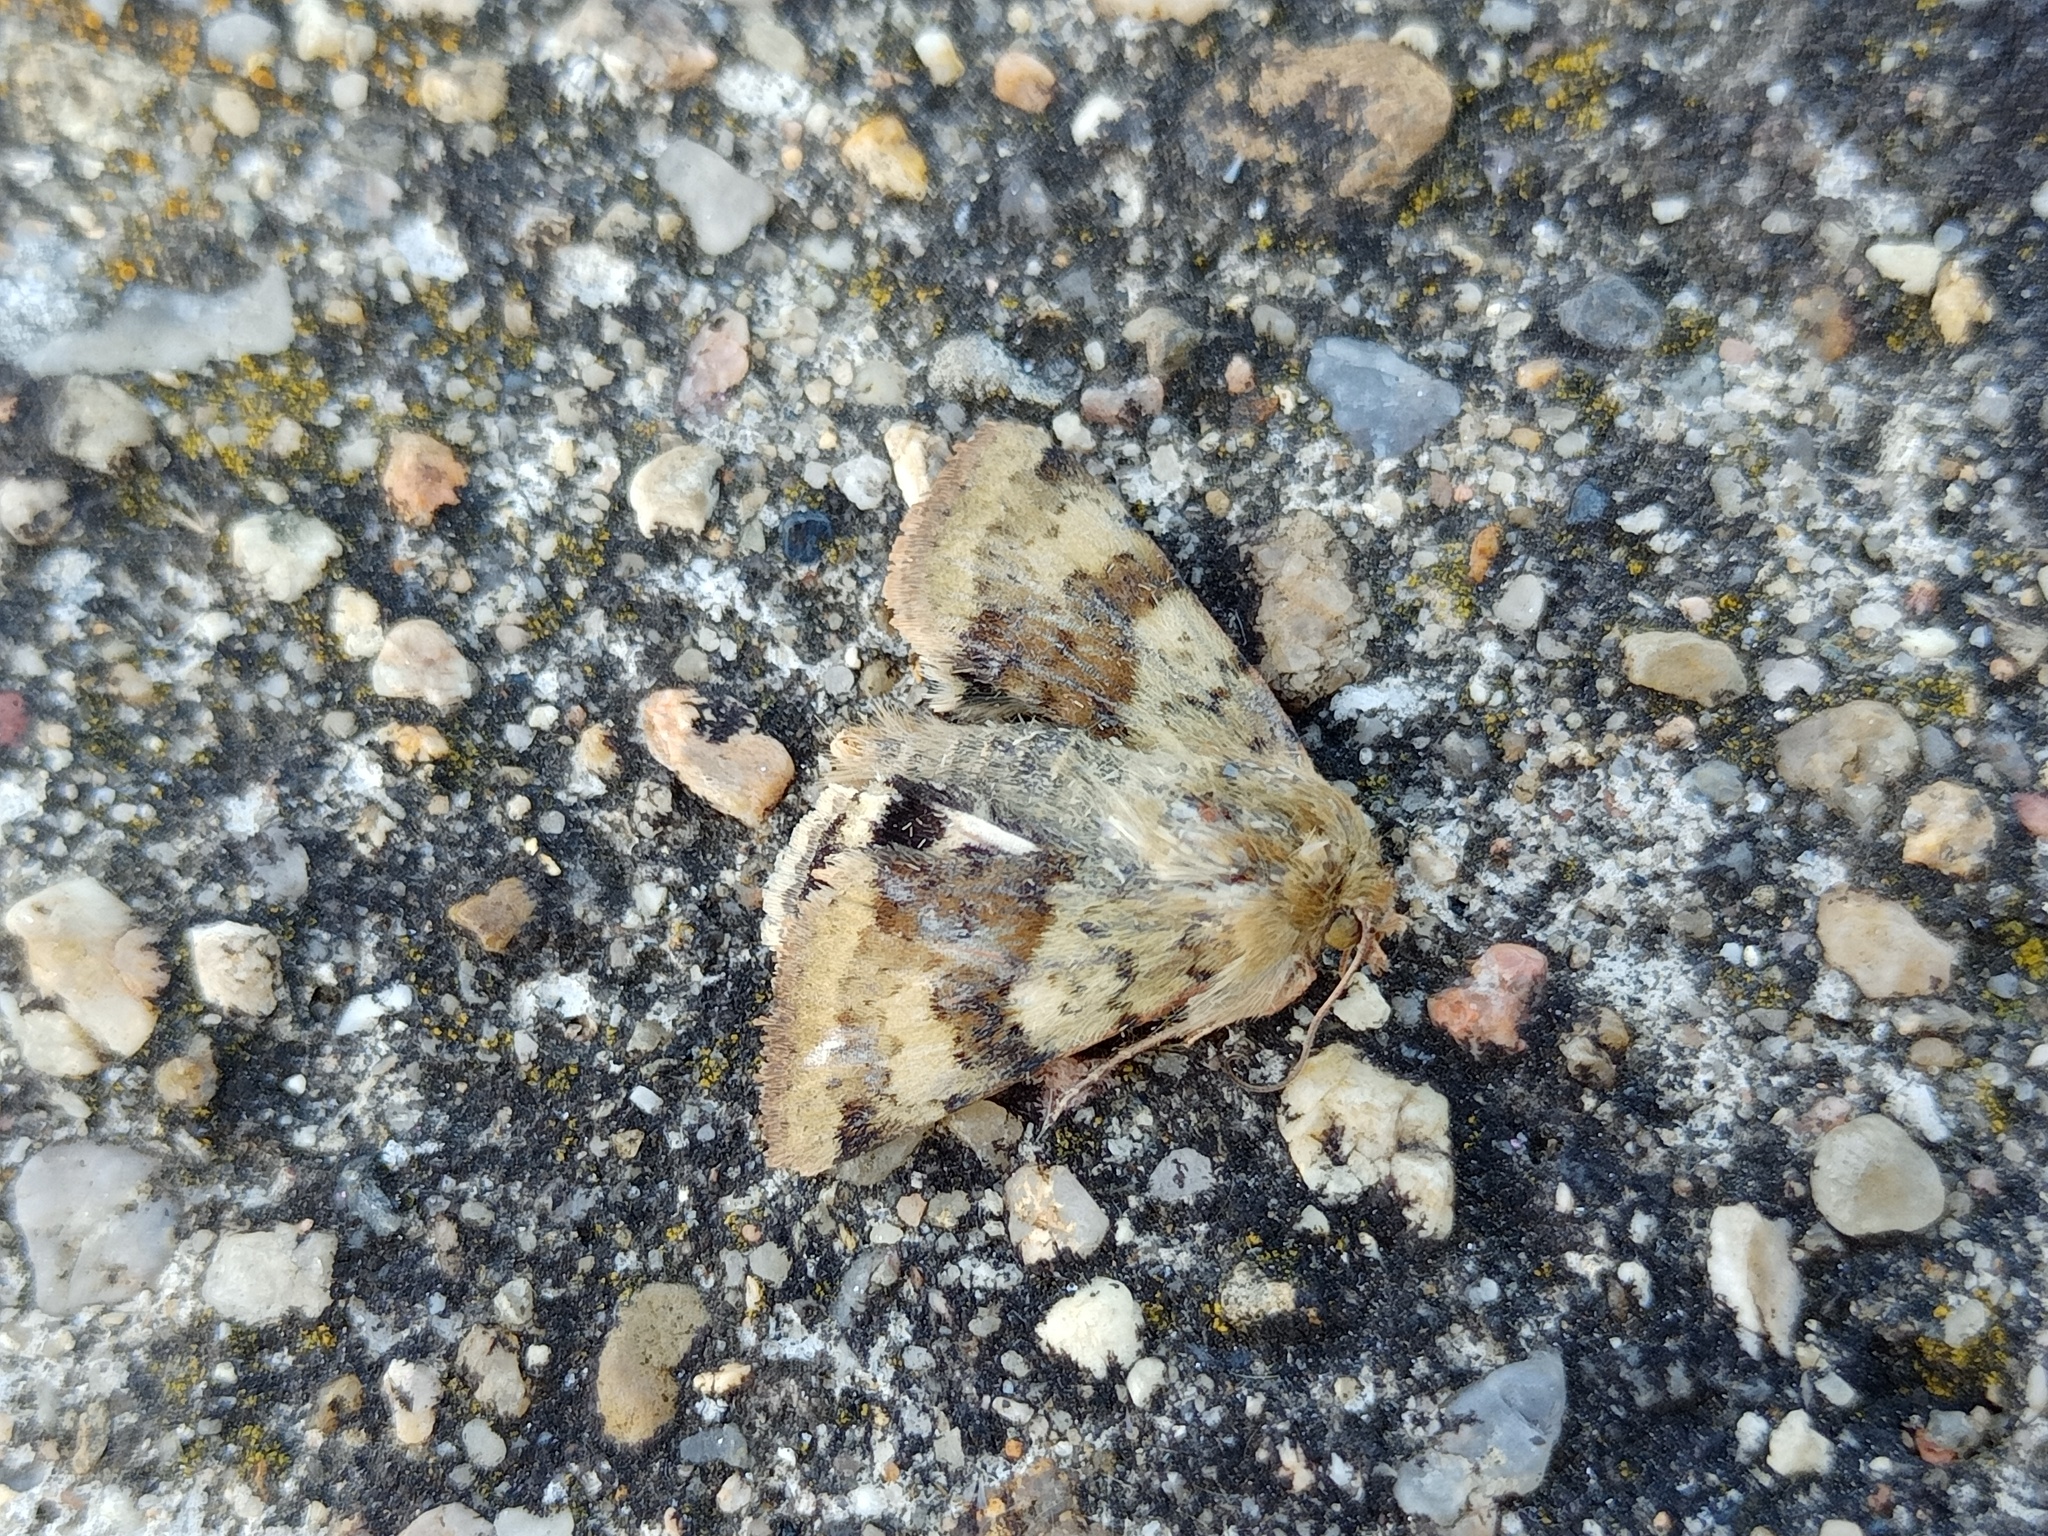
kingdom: Animalia
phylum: Arthropoda
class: Insecta
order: Lepidoptera
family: Noctuidae
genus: Heliothis
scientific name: Heliothis viriplaca
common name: Marbled clover
